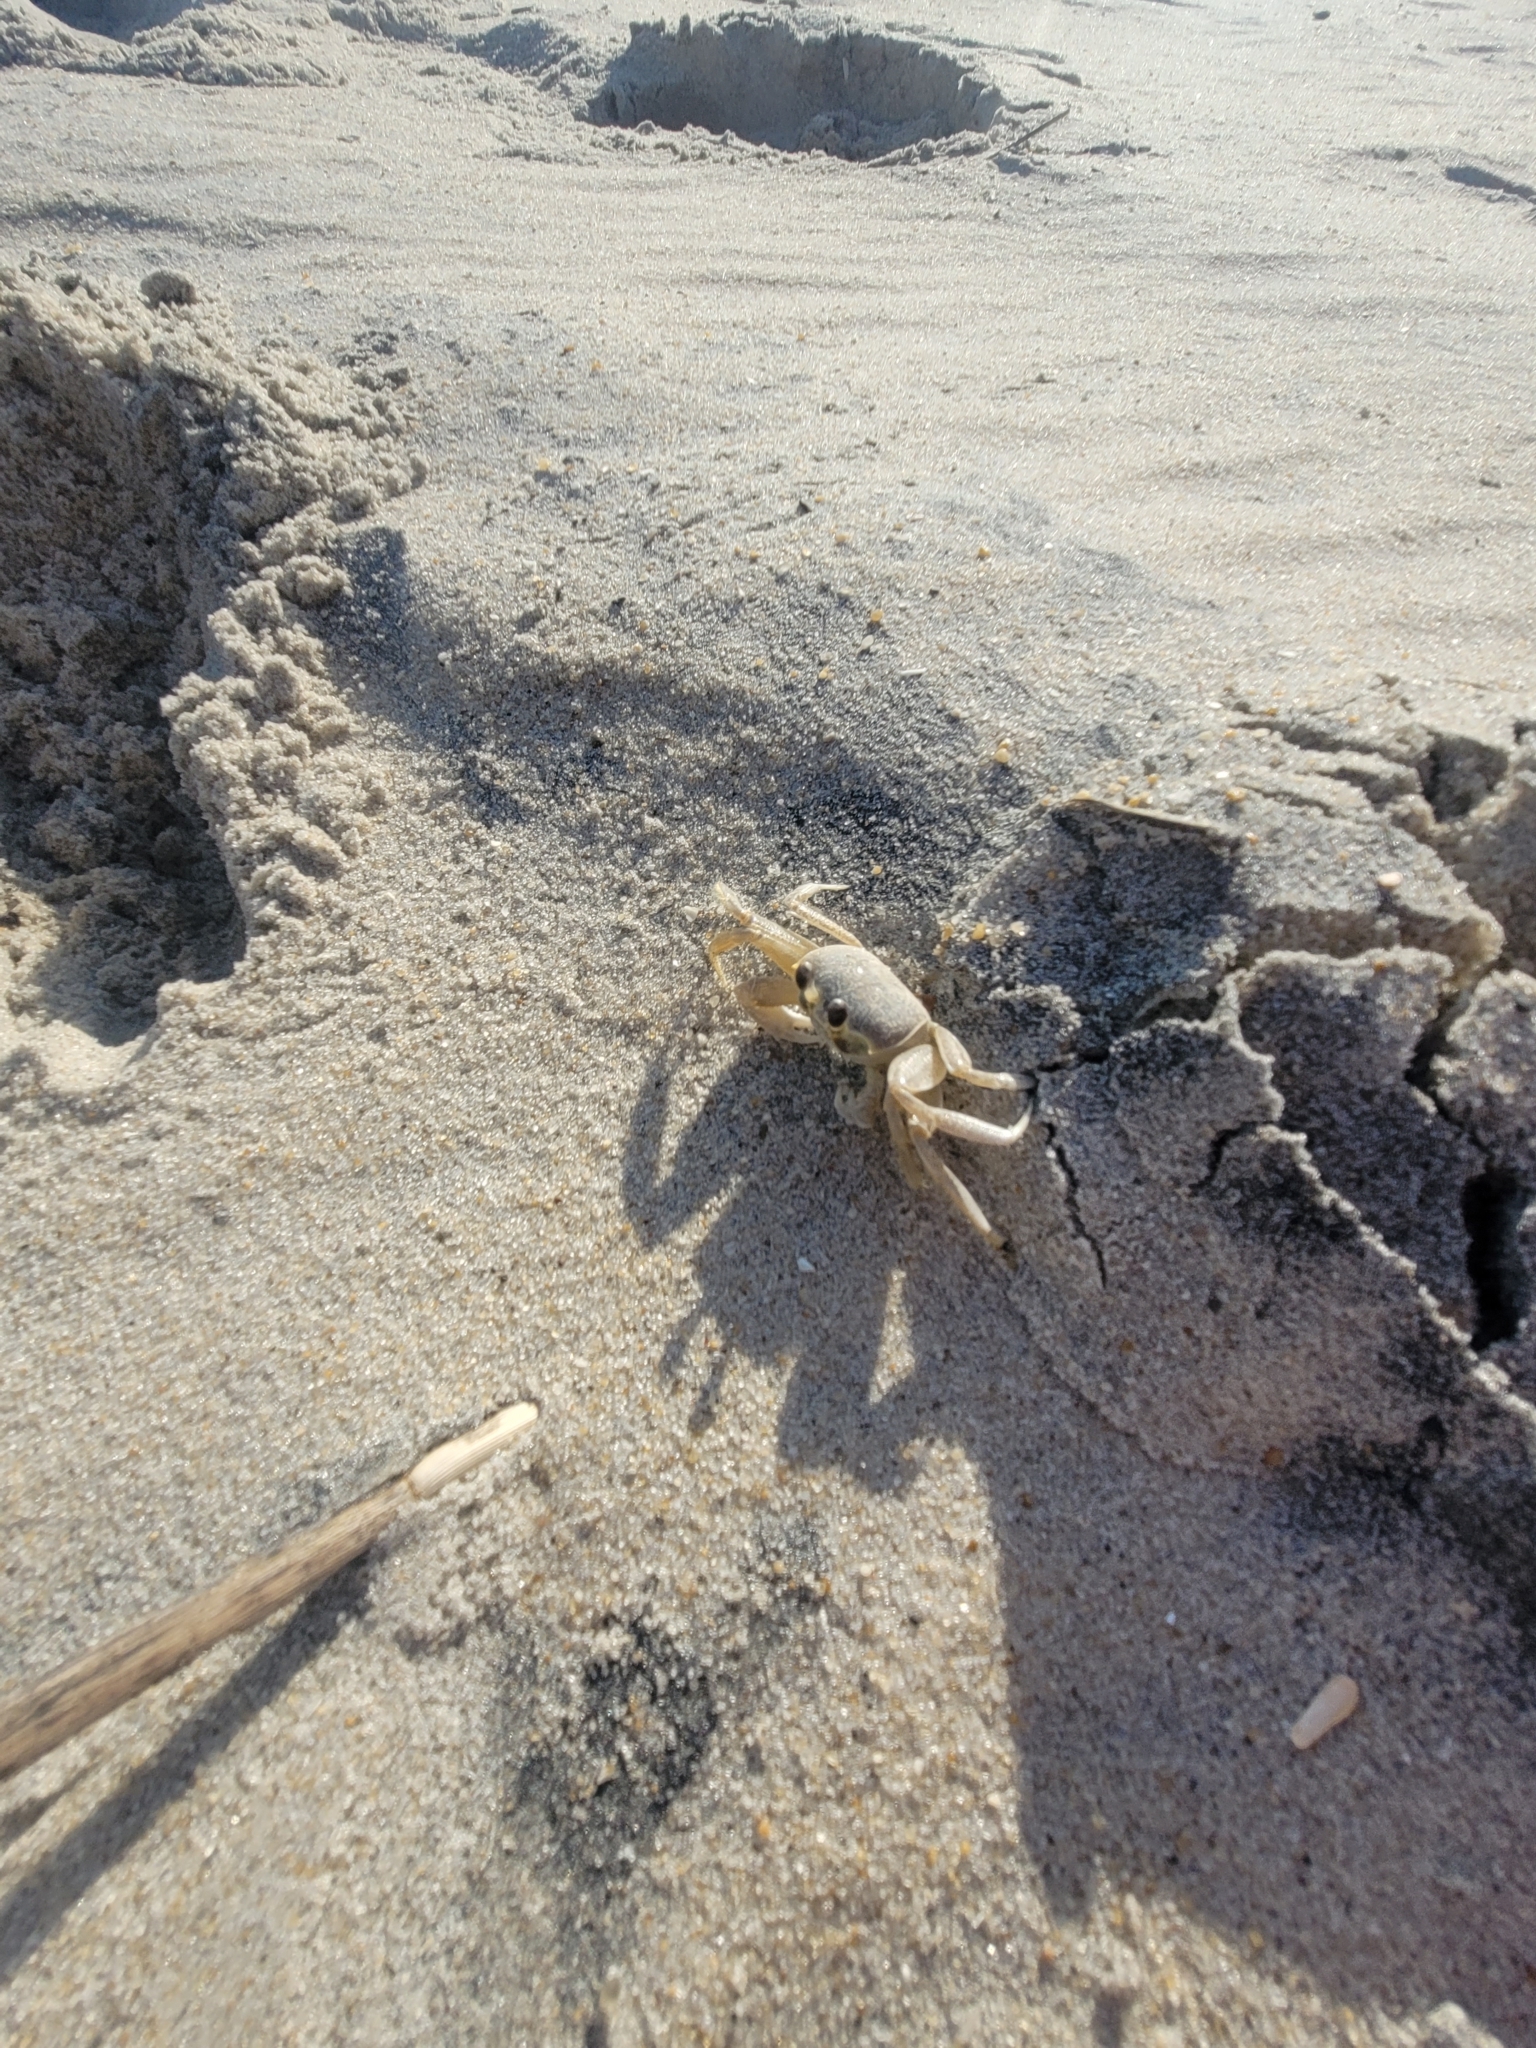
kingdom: Animalia
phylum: Arthropoda
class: Malacostraca
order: Decapoda
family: Ocypodidae
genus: Ocypode
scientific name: Ocypode quadrata
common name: Ghost crab
